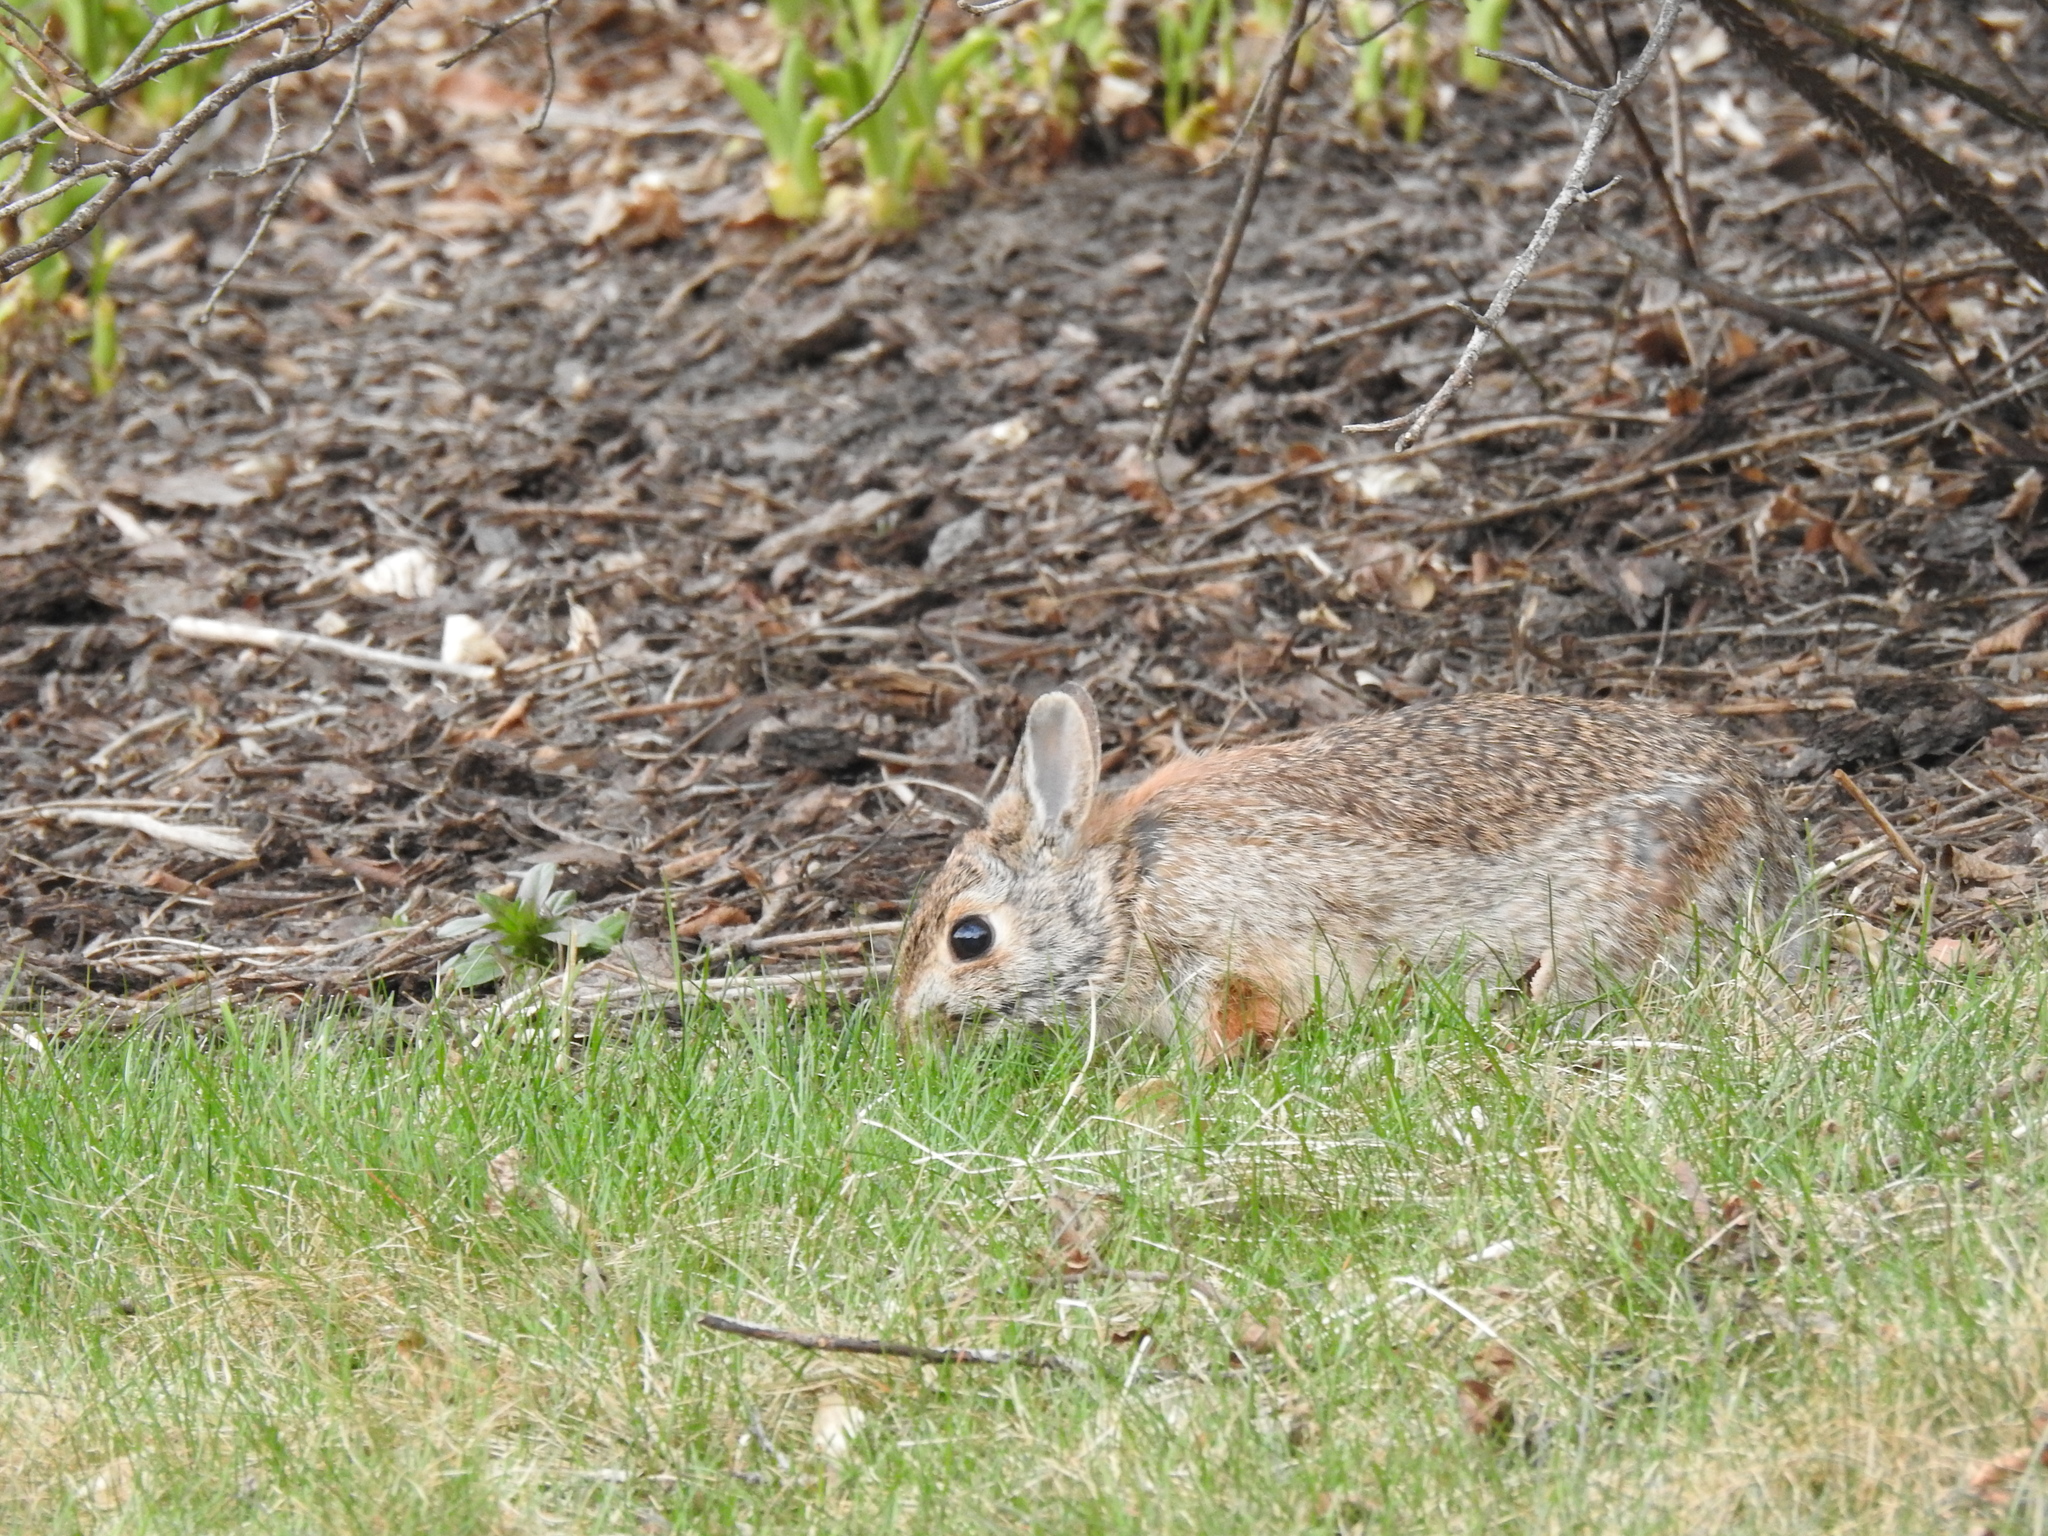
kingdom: Animalia
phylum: Chordata
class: Mammalia
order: Lagomorpha
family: Leporidae
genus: Sylvilagus
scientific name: Sylvilagus floridanus
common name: Eastern cottontail
